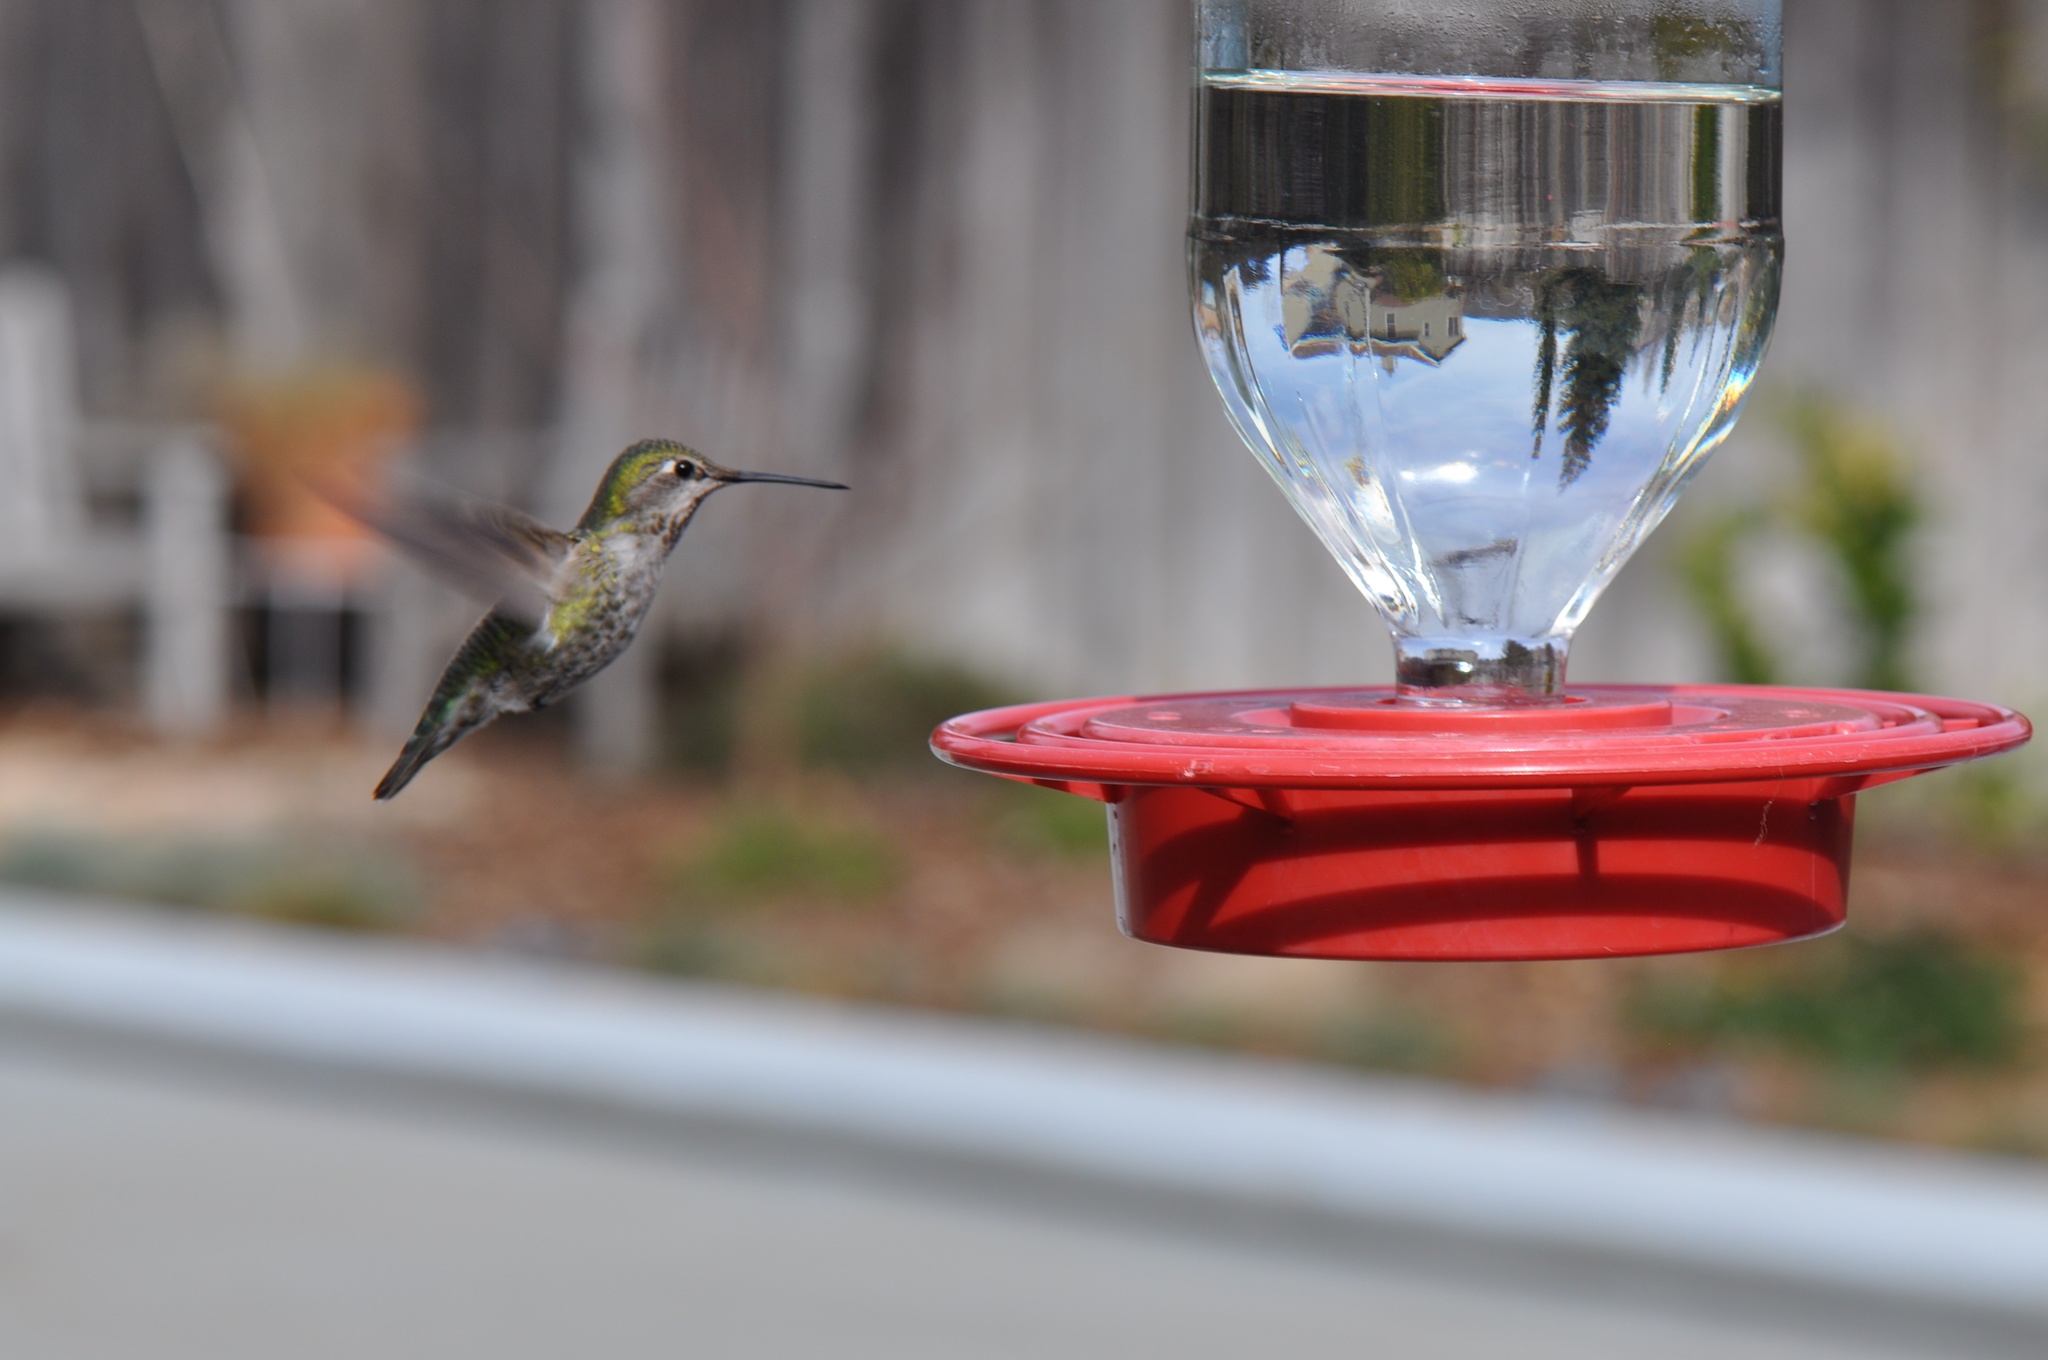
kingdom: Animalia
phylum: Chordata
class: Aves
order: Apodiformes
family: Trochilidae
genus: Calypte
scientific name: Calypte anna
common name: Anna's hummingbird
